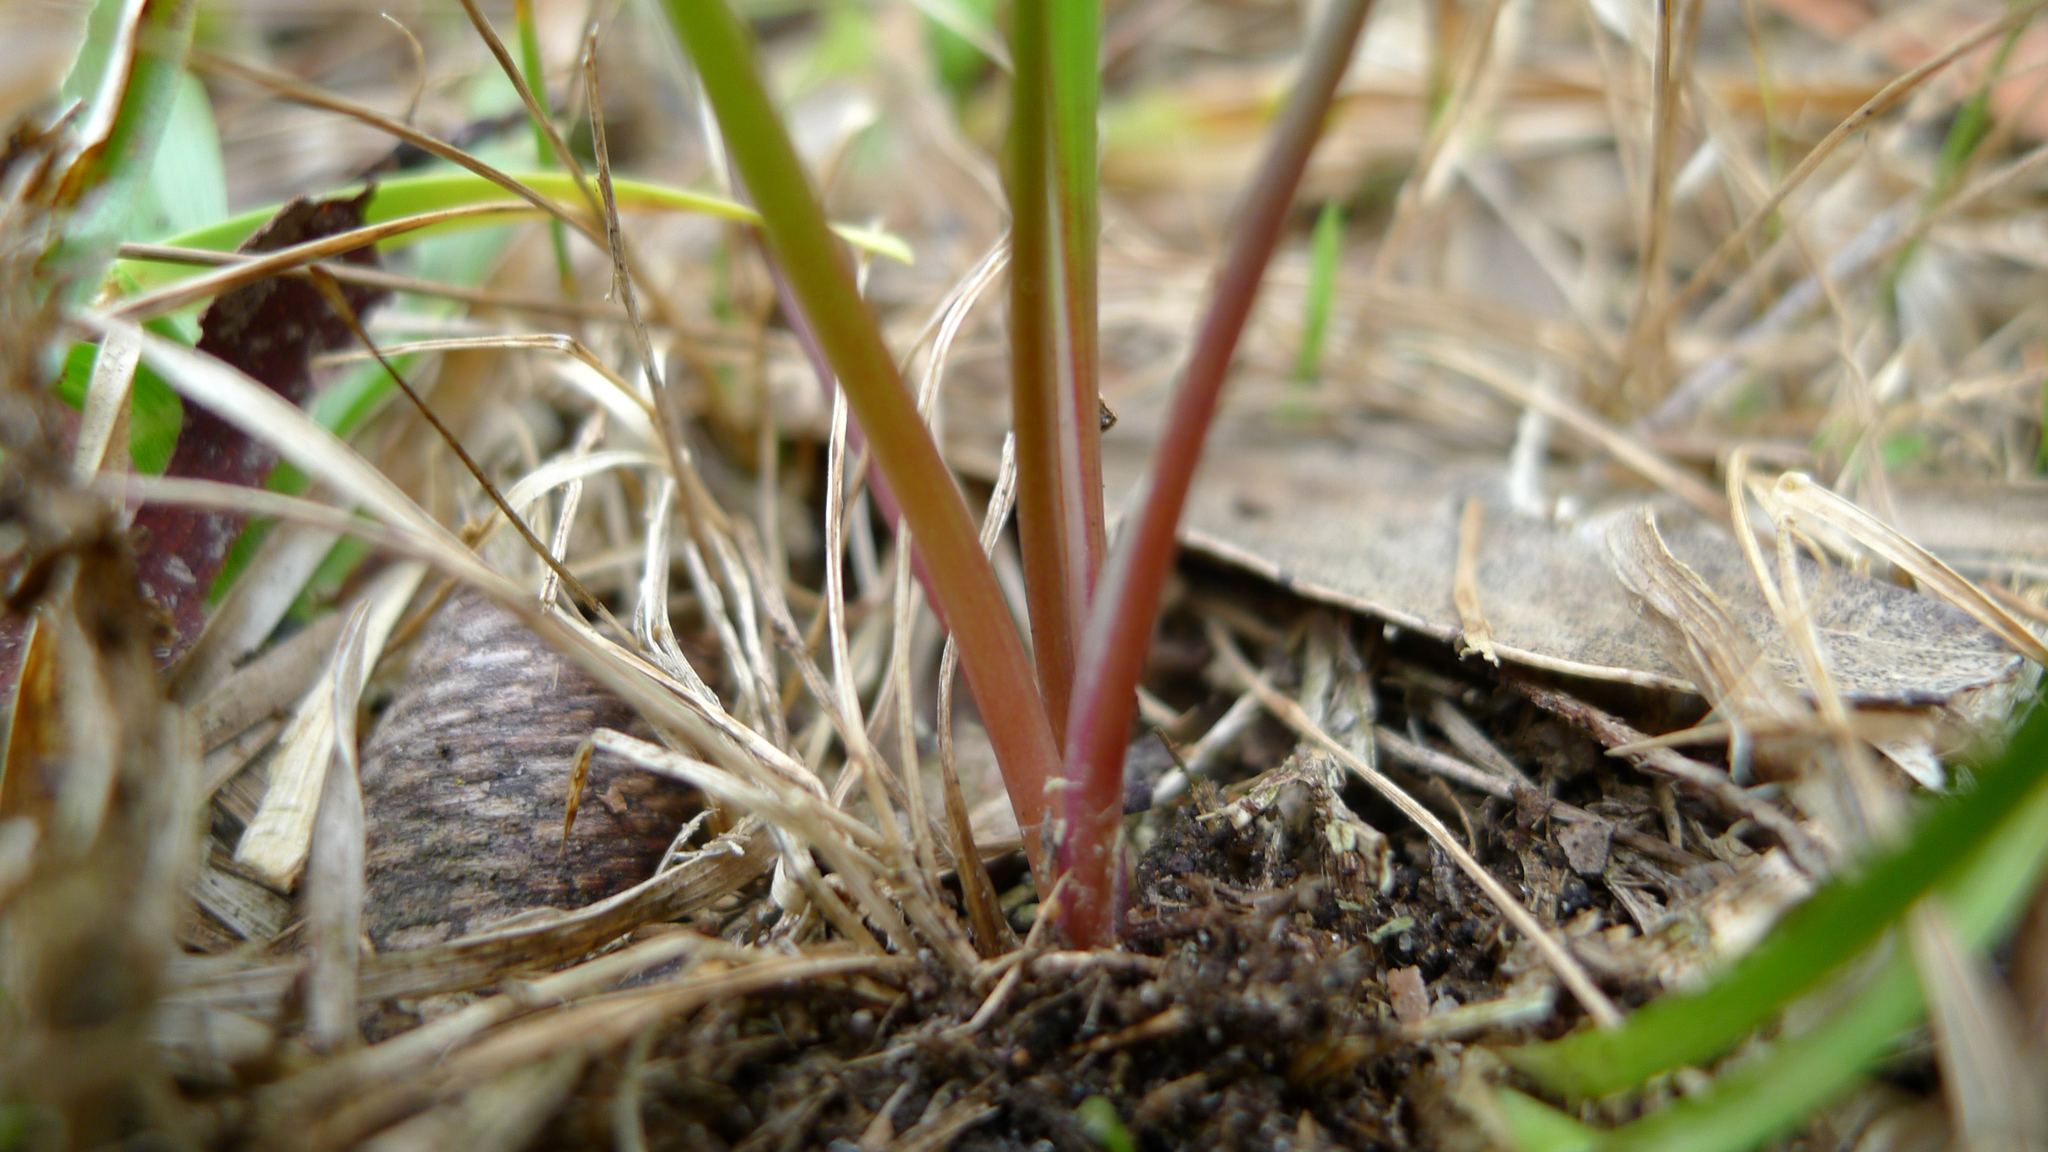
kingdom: Plantae
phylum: Tracheophyta
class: Liliopsida
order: Asparagales
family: Asparagaceae
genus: Thysanotus
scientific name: Thysanotus tuberosus
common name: Common fringed-lily
